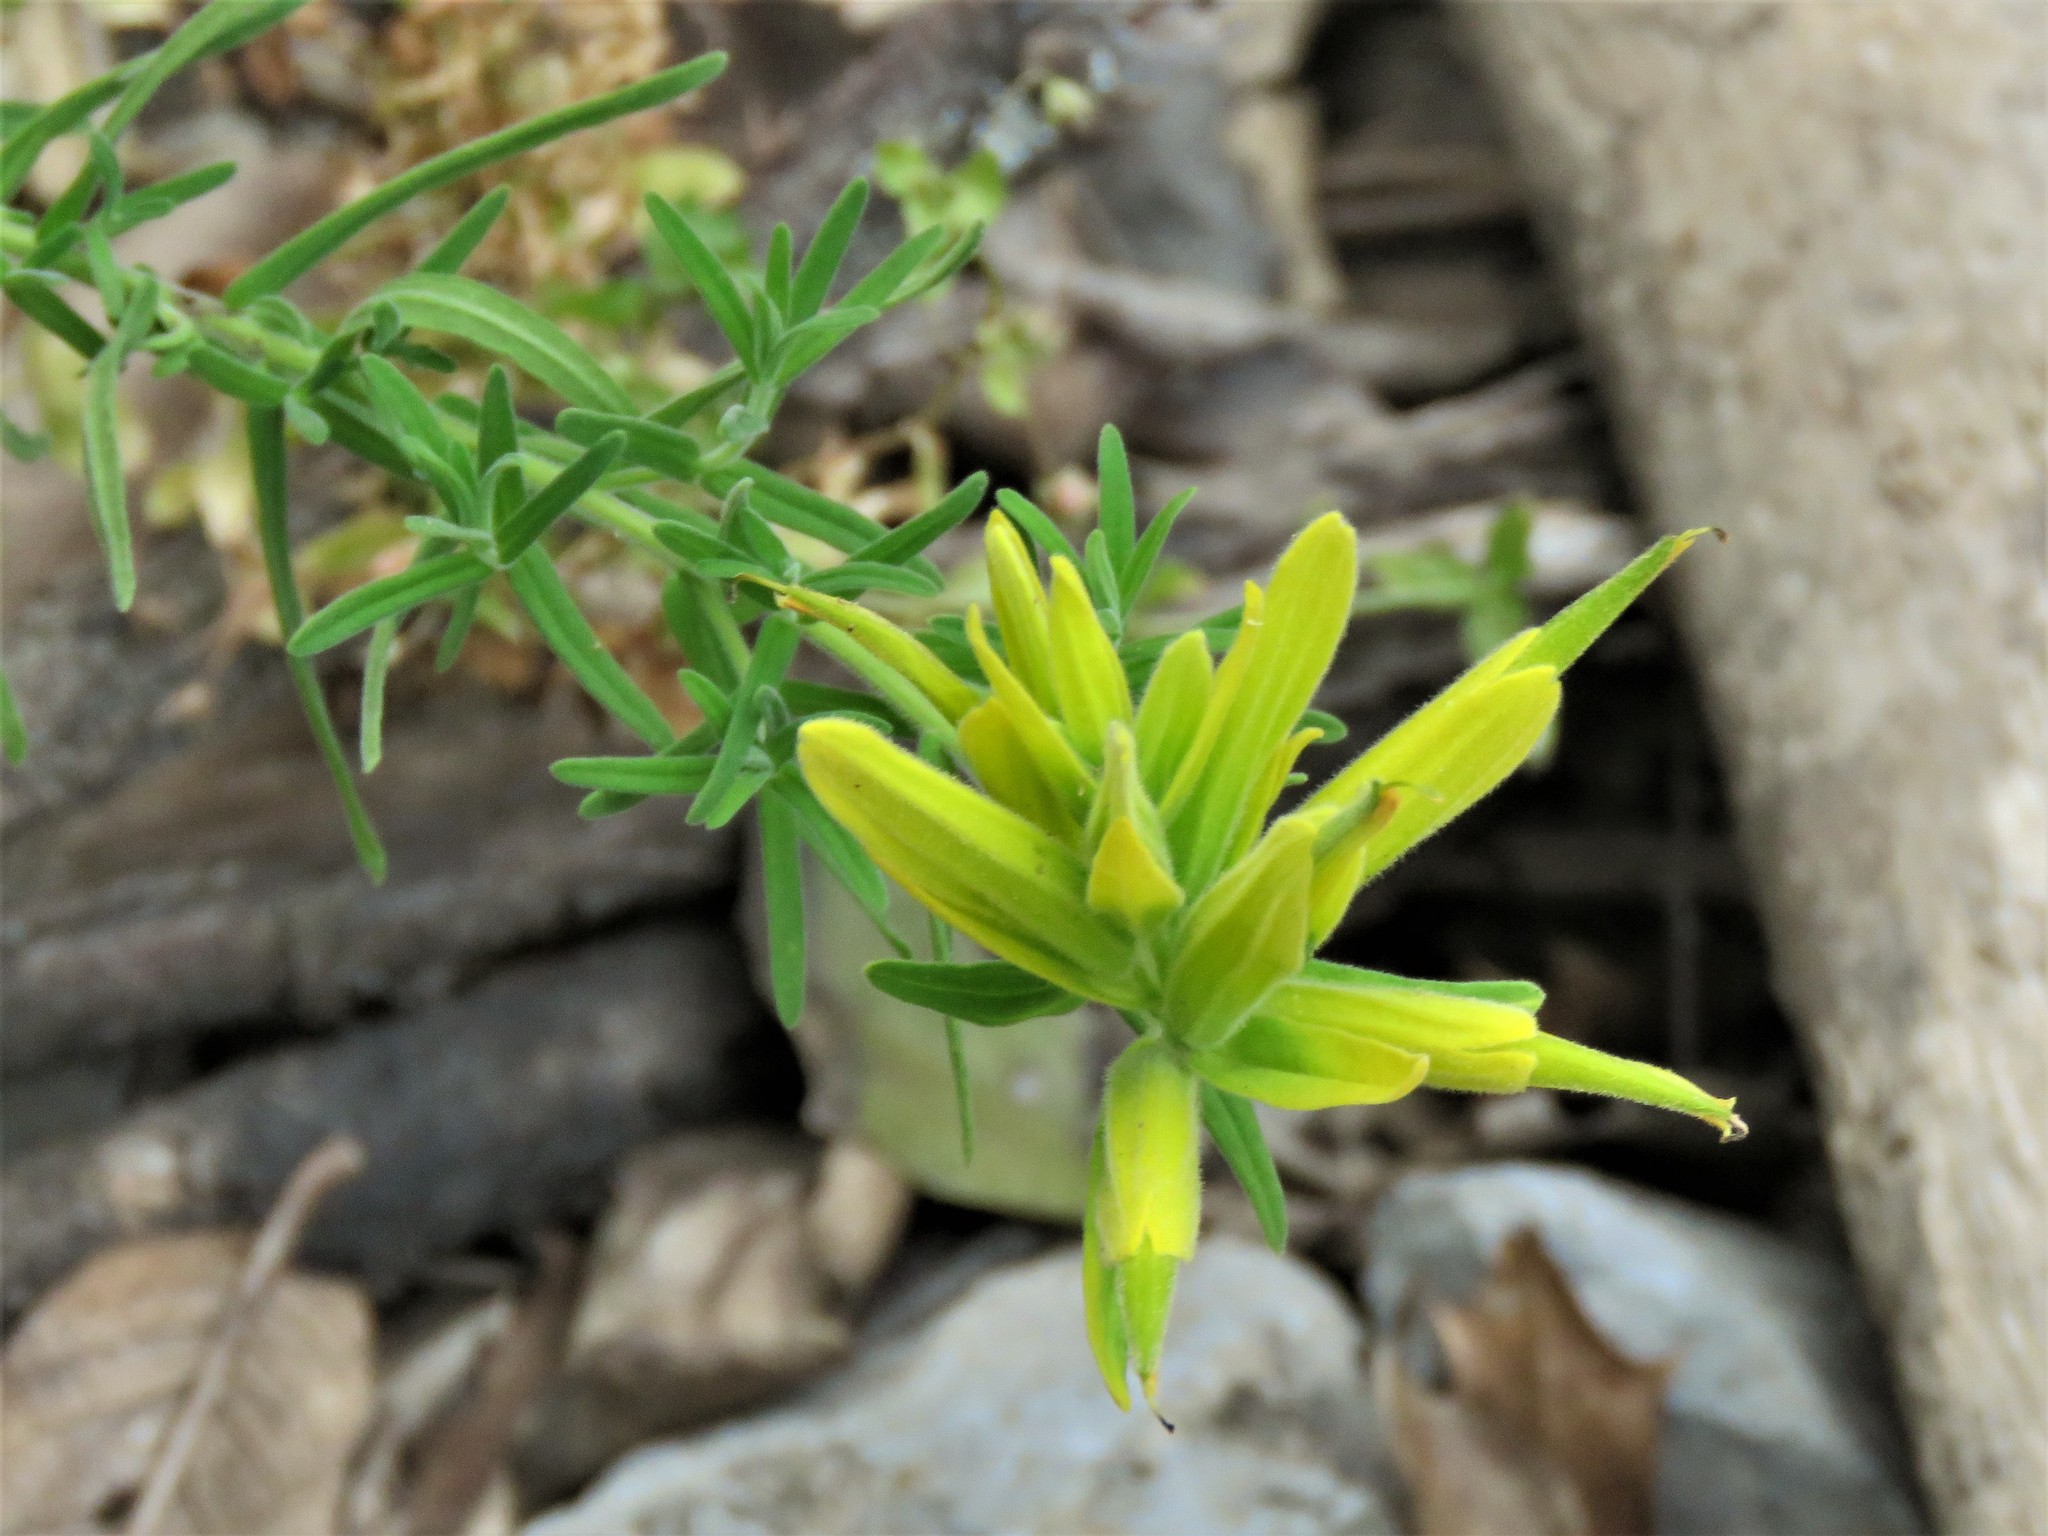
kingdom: Plantae
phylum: Tracheophyta
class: Magnoliopsida
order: Lamiales
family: Orobanchaceae
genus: Castilleja
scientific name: Castilleja tenuiflora
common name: Santa catalina indian paintbrush
